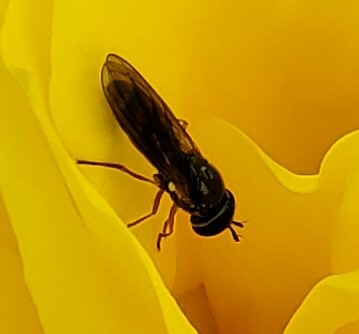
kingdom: Animalia
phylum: Arthropoda
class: Insecta
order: Diptera
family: Syrphidae
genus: Melanostoma
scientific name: Melanostoma
